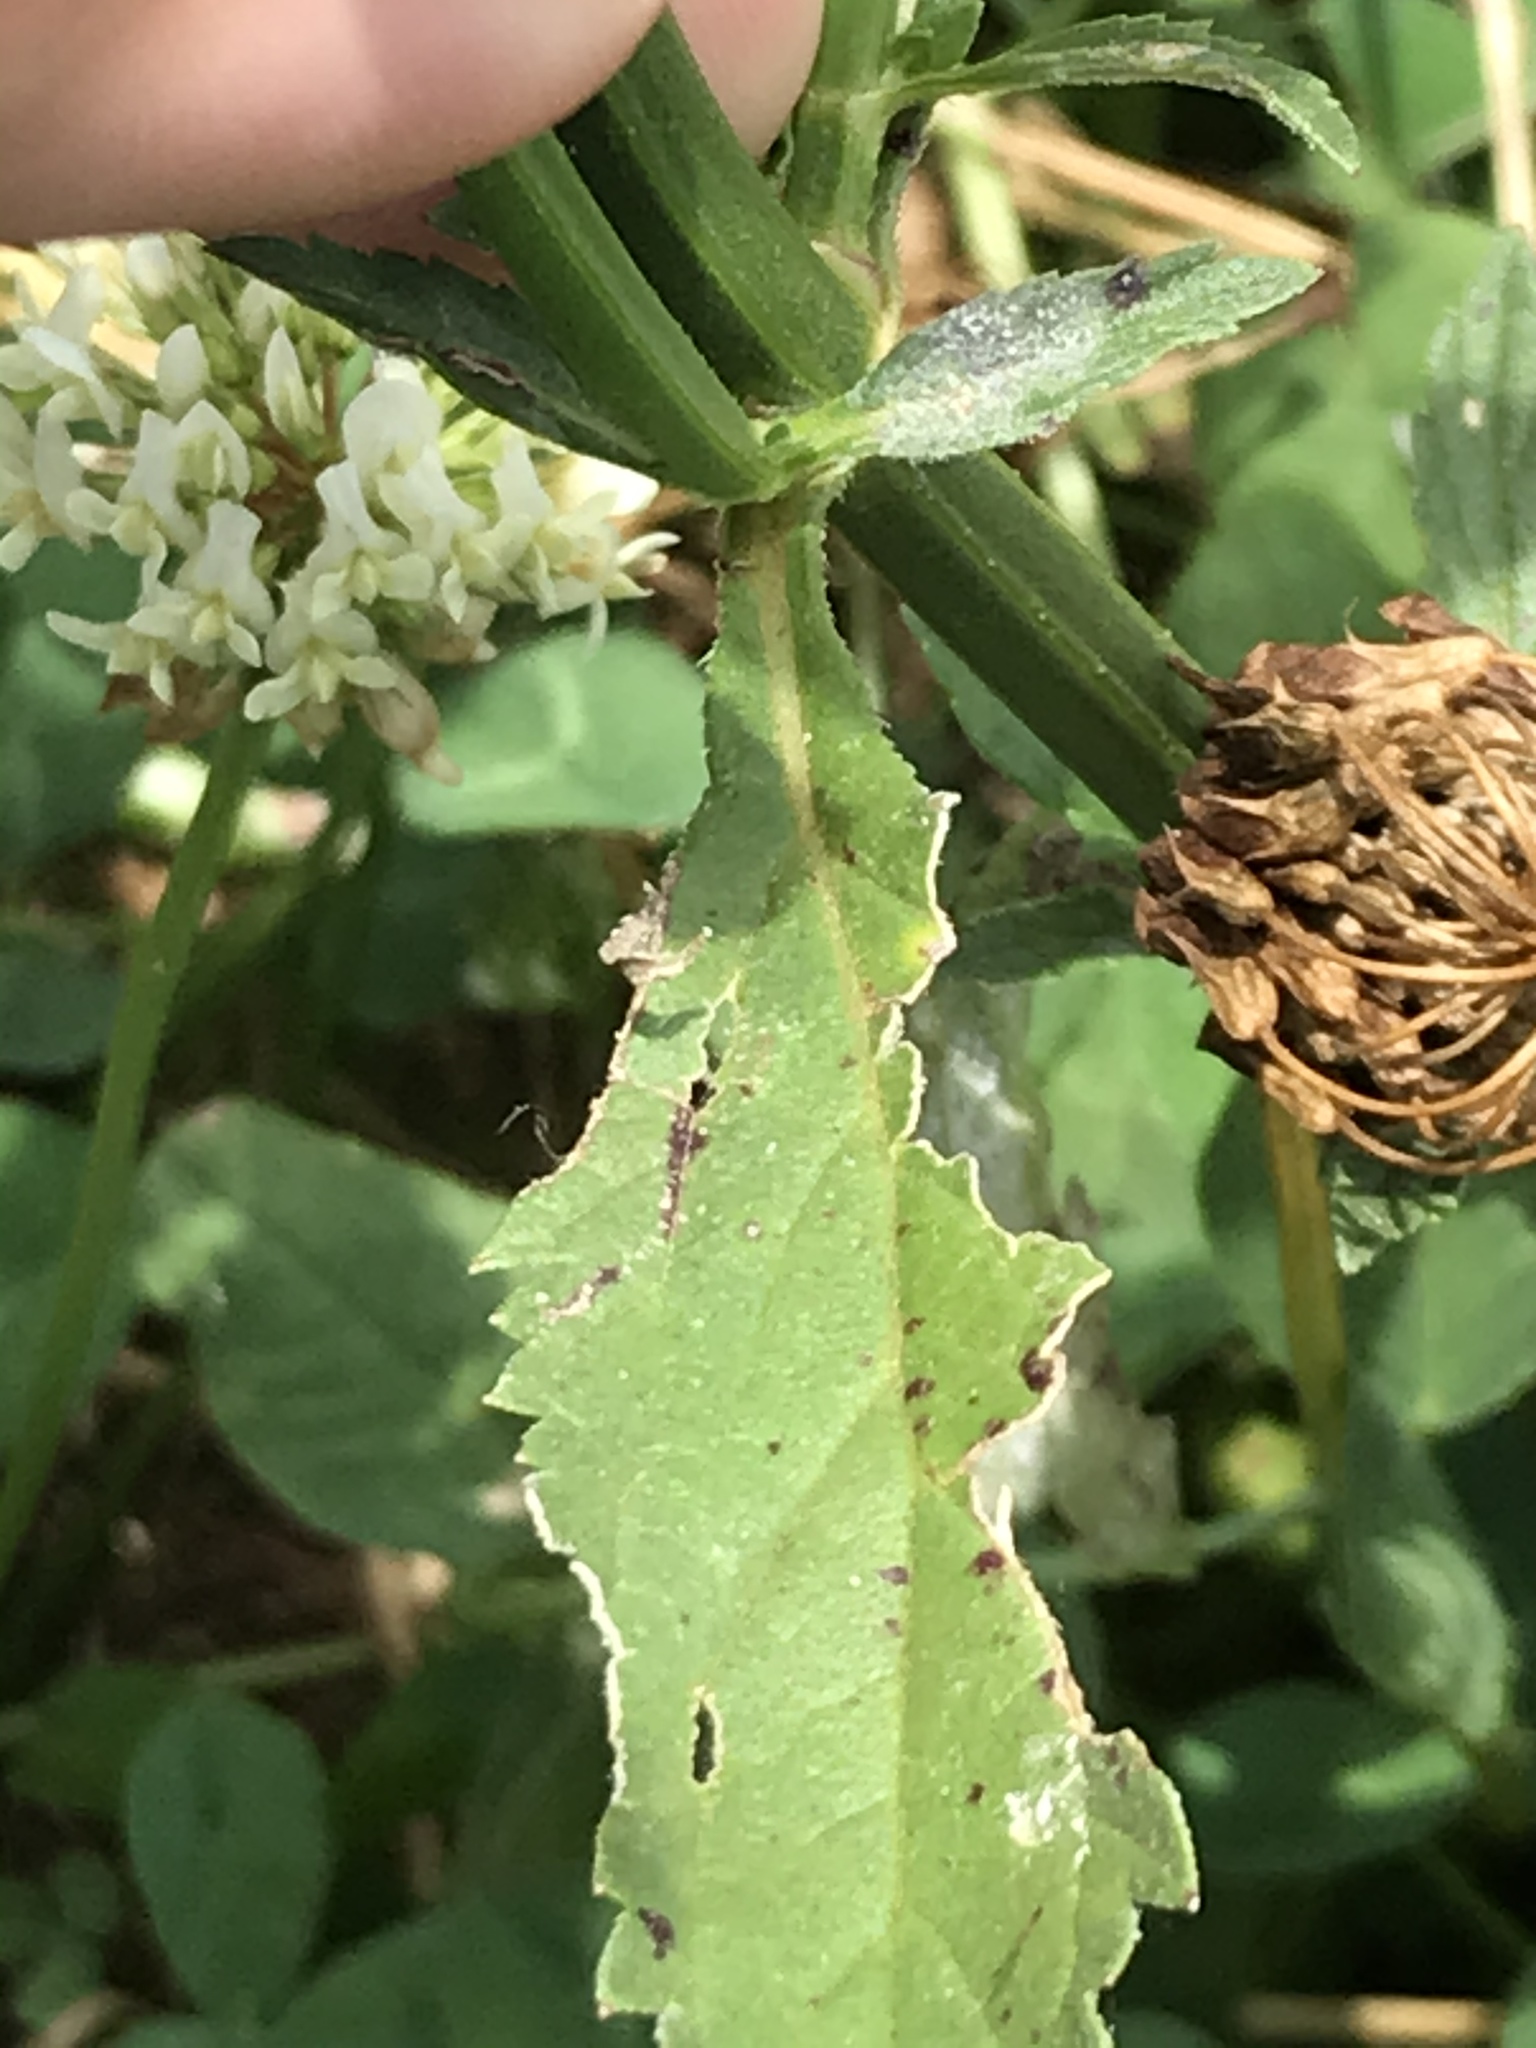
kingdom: Plantae
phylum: Tracheophyta
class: Magnoliopsida
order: Lamiales
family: Verbenaceae
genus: Verbena
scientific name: Verbena brasiliensis
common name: Brazilian vervain
